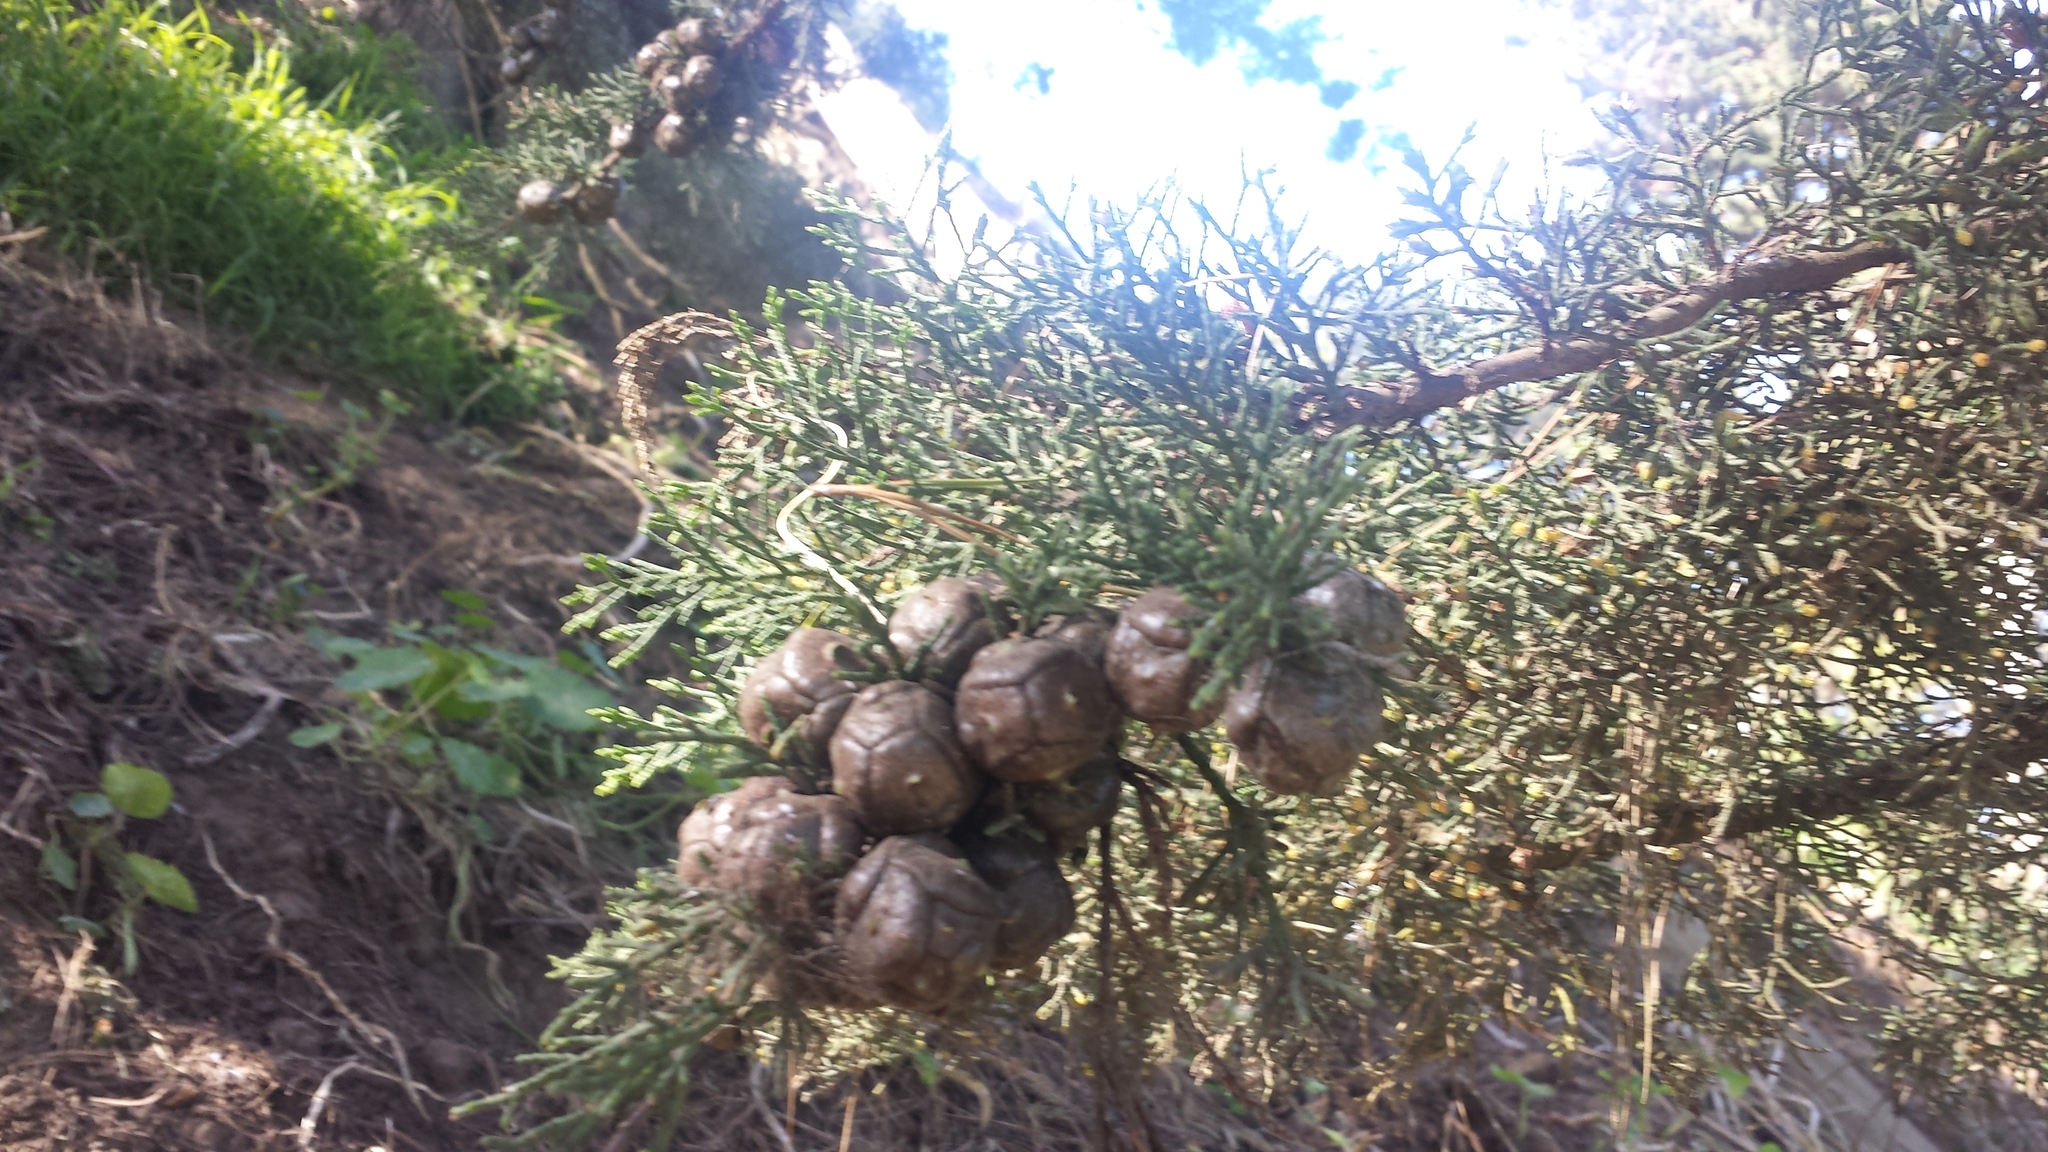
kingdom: Plantae
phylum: Tracheophyta
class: Pinopsida
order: Pinales
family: Cupressaceae
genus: Cupressus
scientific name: Cupressus macrocarpa
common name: Monterey cypress
